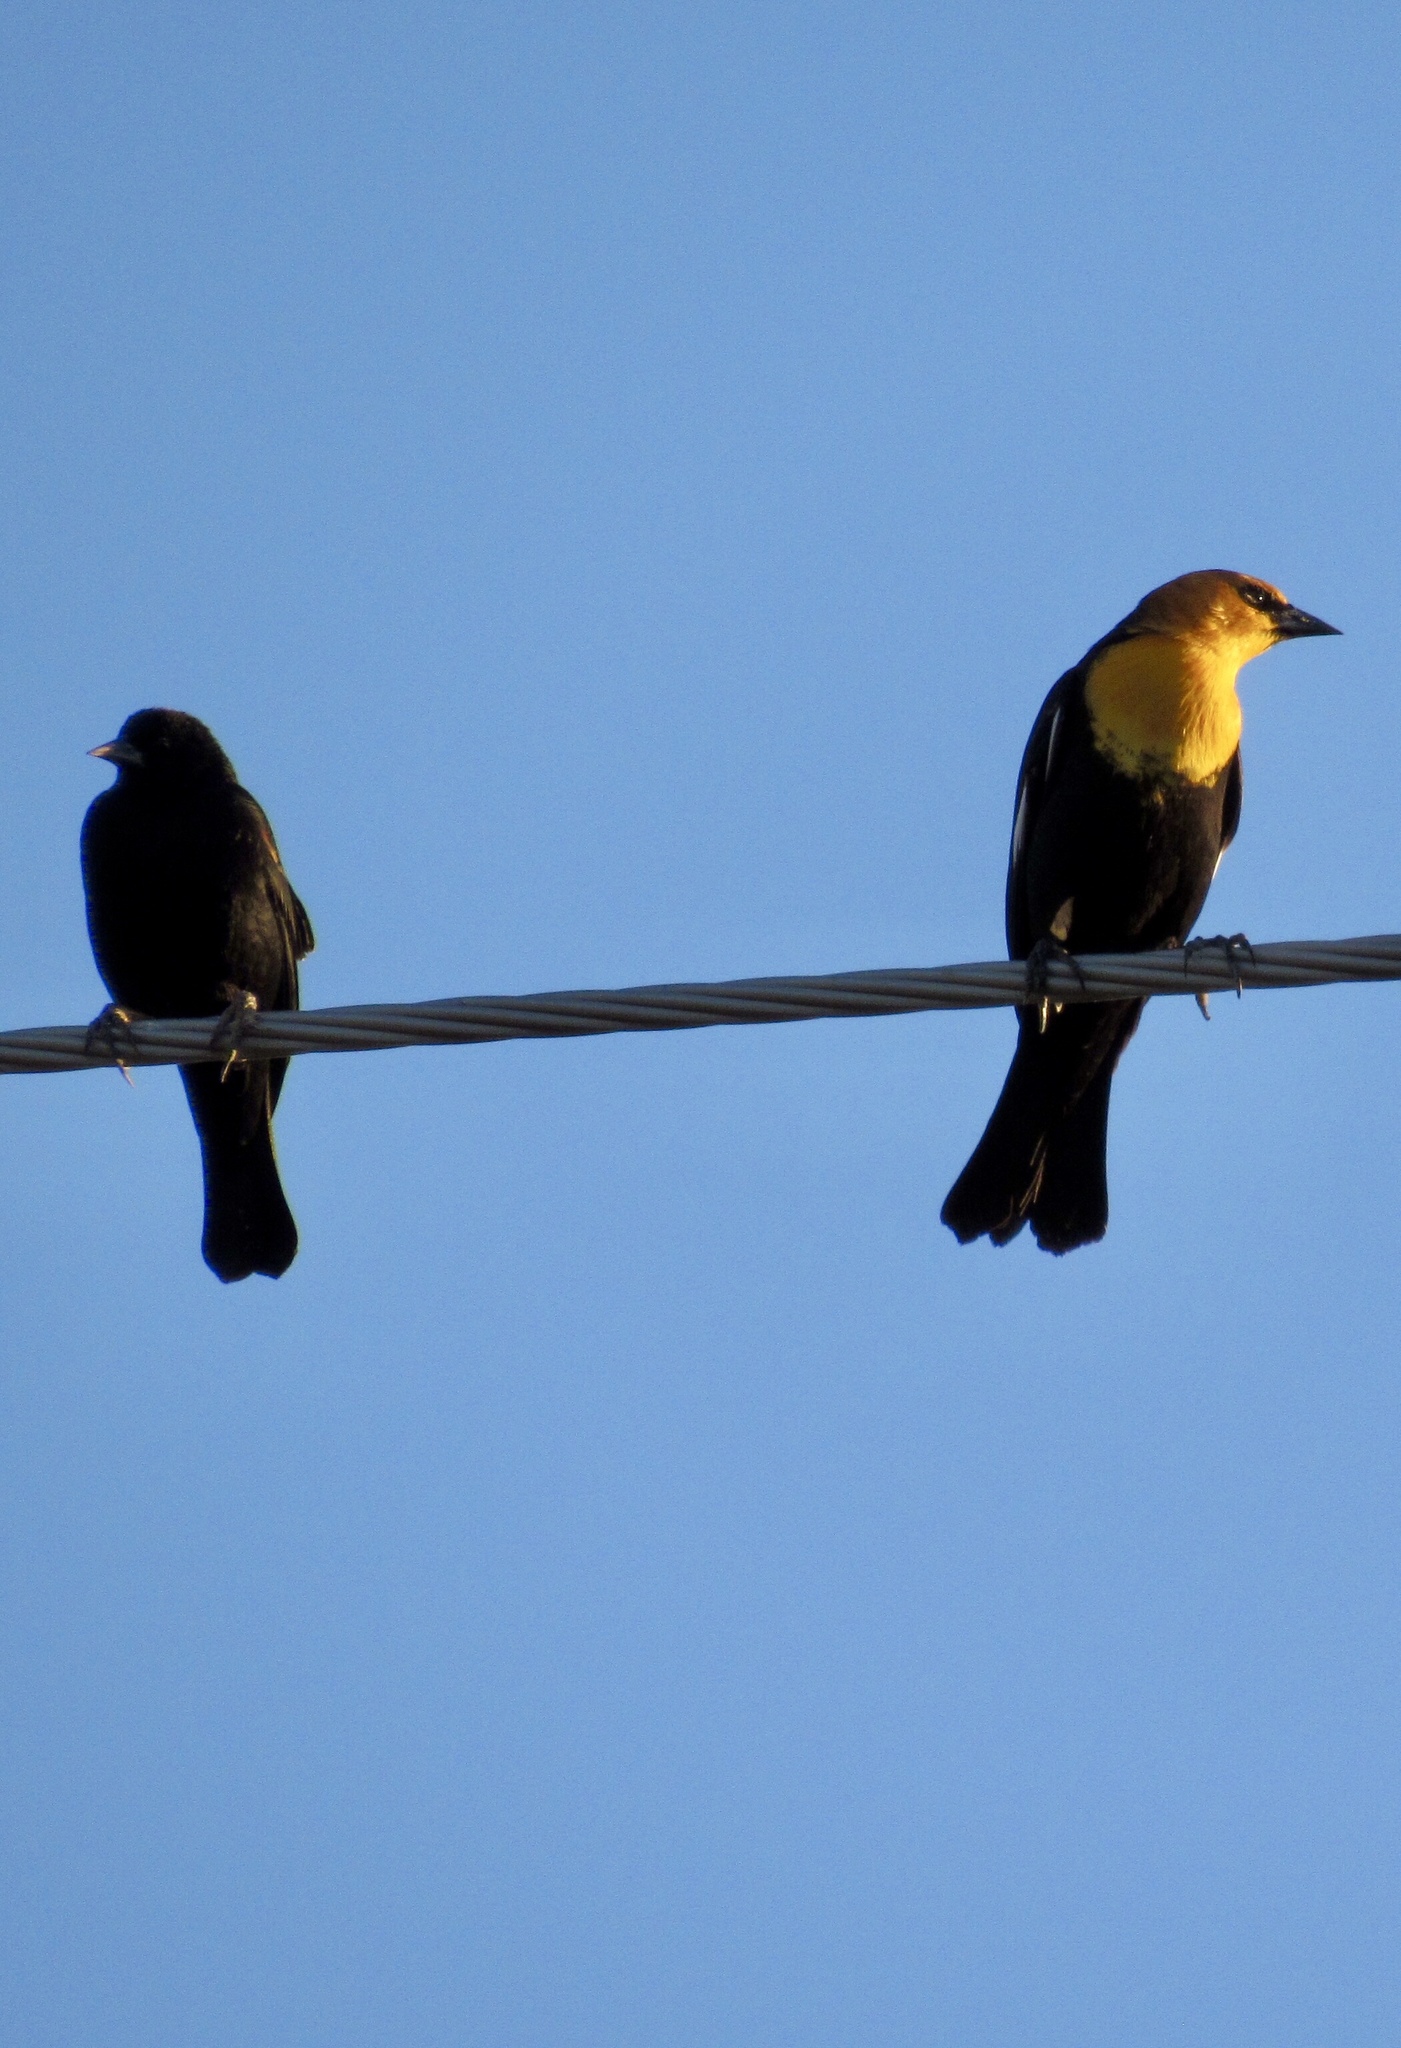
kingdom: Animalia
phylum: Chordata
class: Aves
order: Passeriformes
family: Icteridae
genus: Xanthocephalus
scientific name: Xanthocephalus xanthocephalus
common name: Yellow-headed blackbird
